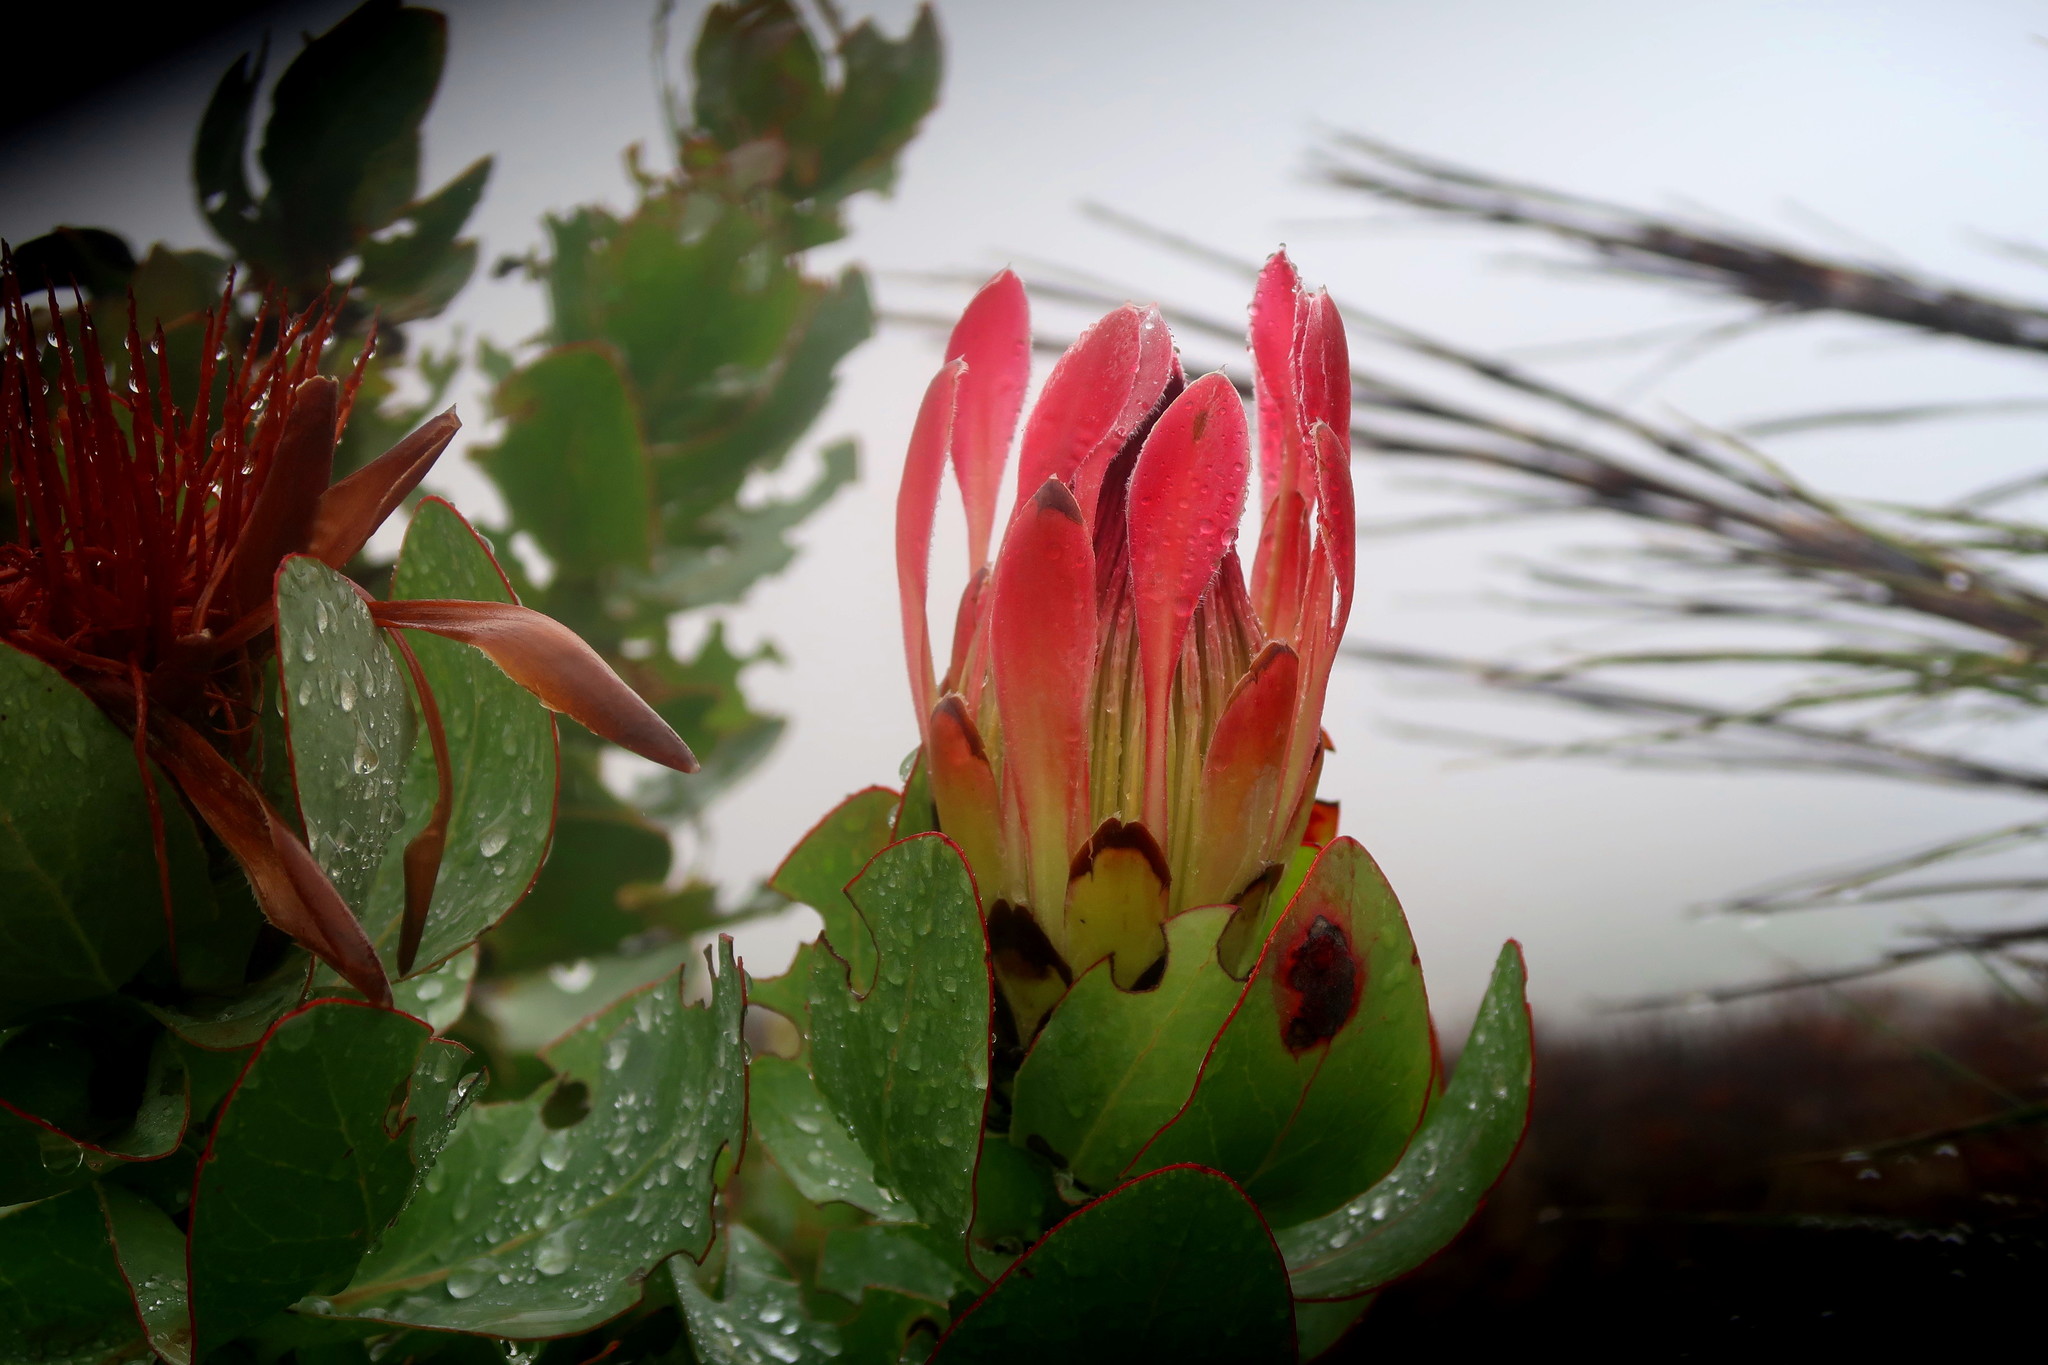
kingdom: Plantae
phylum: Tracheophyta
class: Magnoliopsida
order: Proteales
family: Proteaceae
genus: Protea
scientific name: Protea eximia
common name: Broad-leaved sugarbush
